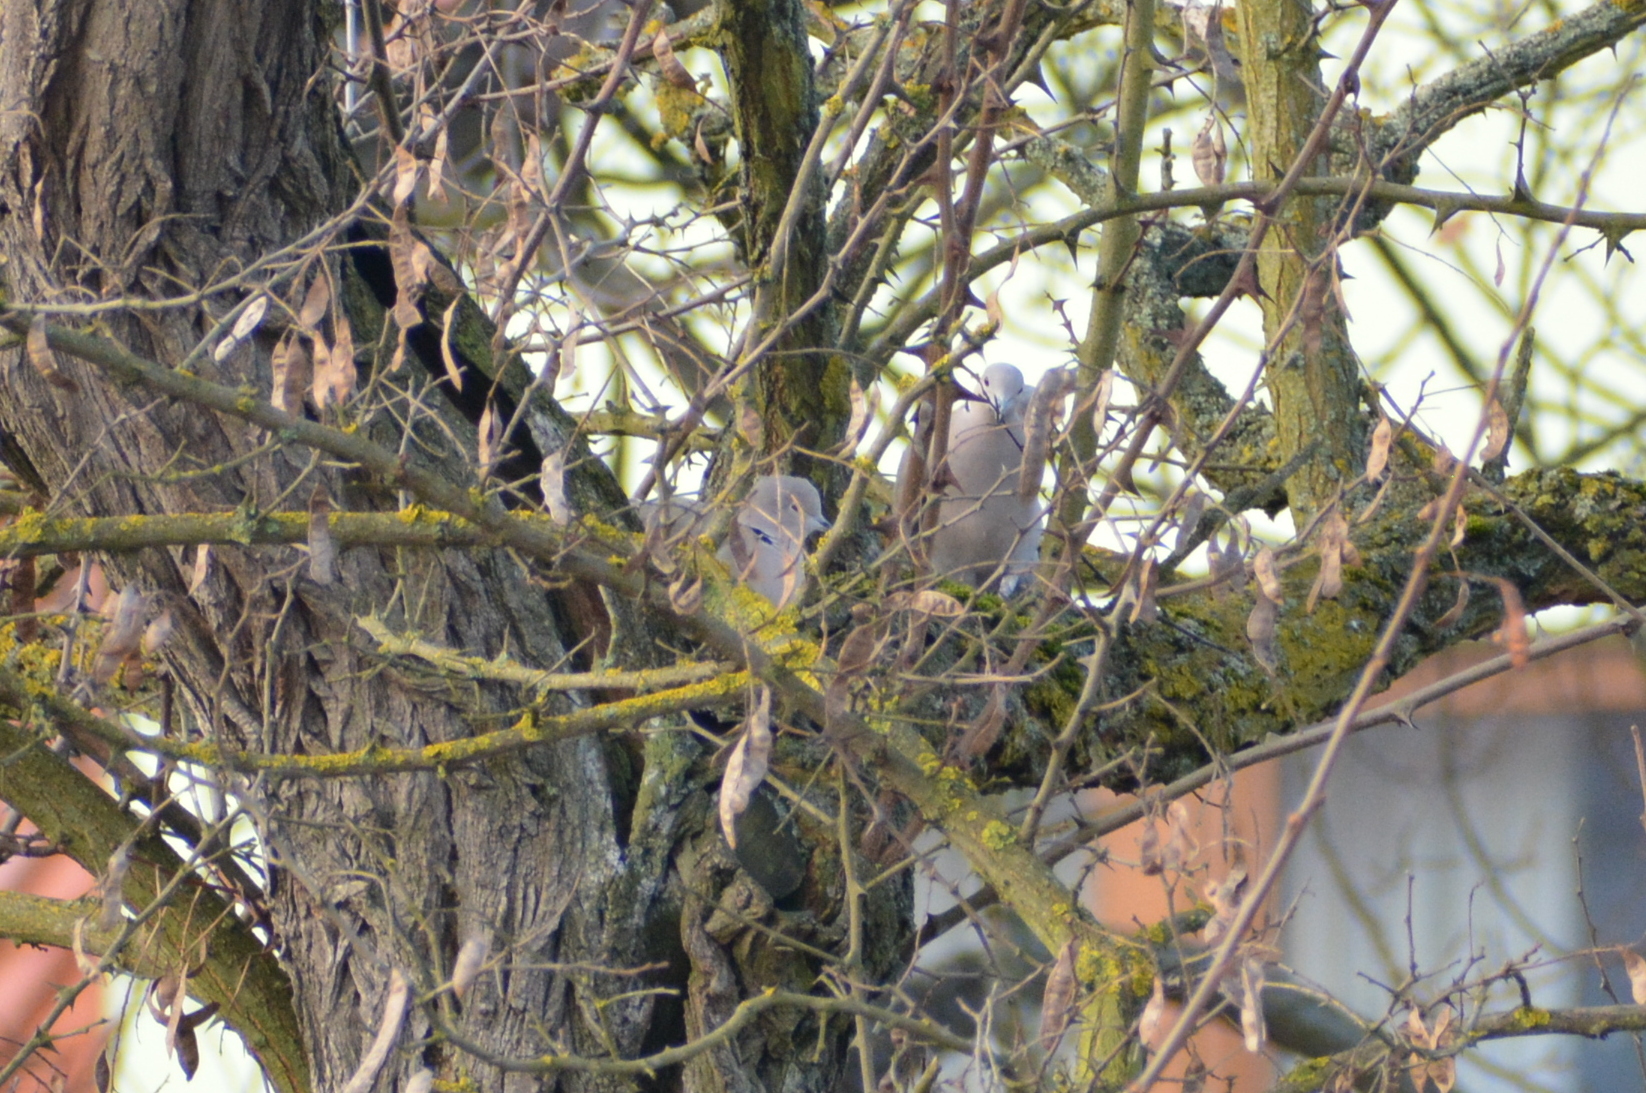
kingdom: Animalia
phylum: Chordata
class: Aves
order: Columbiformes
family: Columbidae
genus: Streptopelia
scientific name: Streptopelia decaocto
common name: Eurasian collared dove
